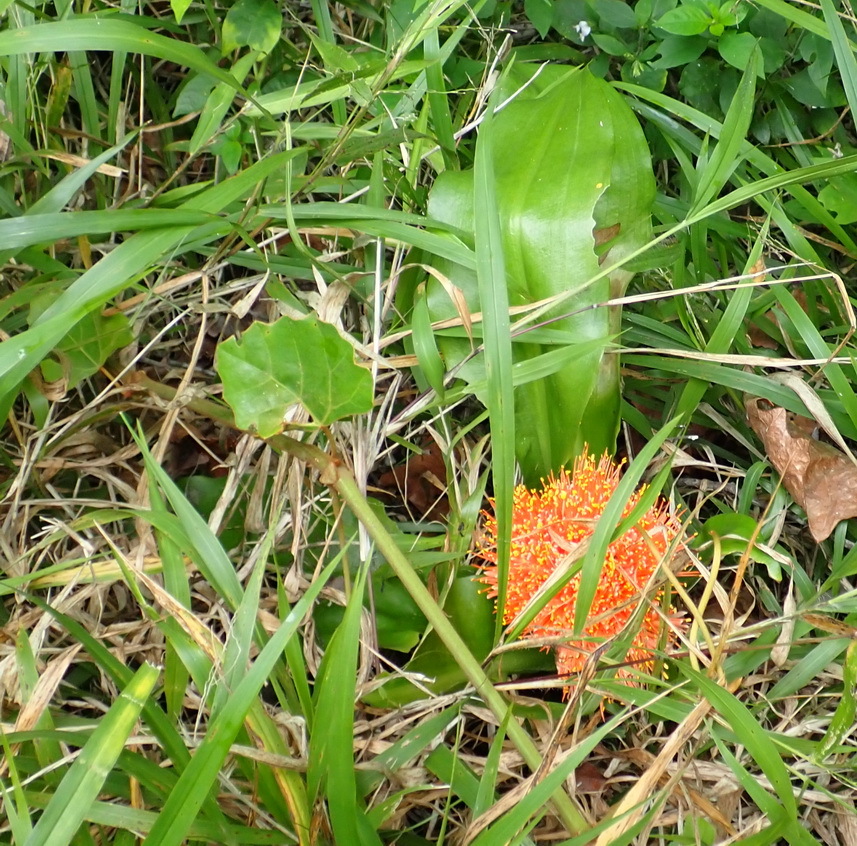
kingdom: Plantae
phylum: Tracheophyta
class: Liliopsida
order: Asparagales
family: Amaryllidaceae
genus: Scadoxus
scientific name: Scadoxus puniceus
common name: Royal-paintbrush
